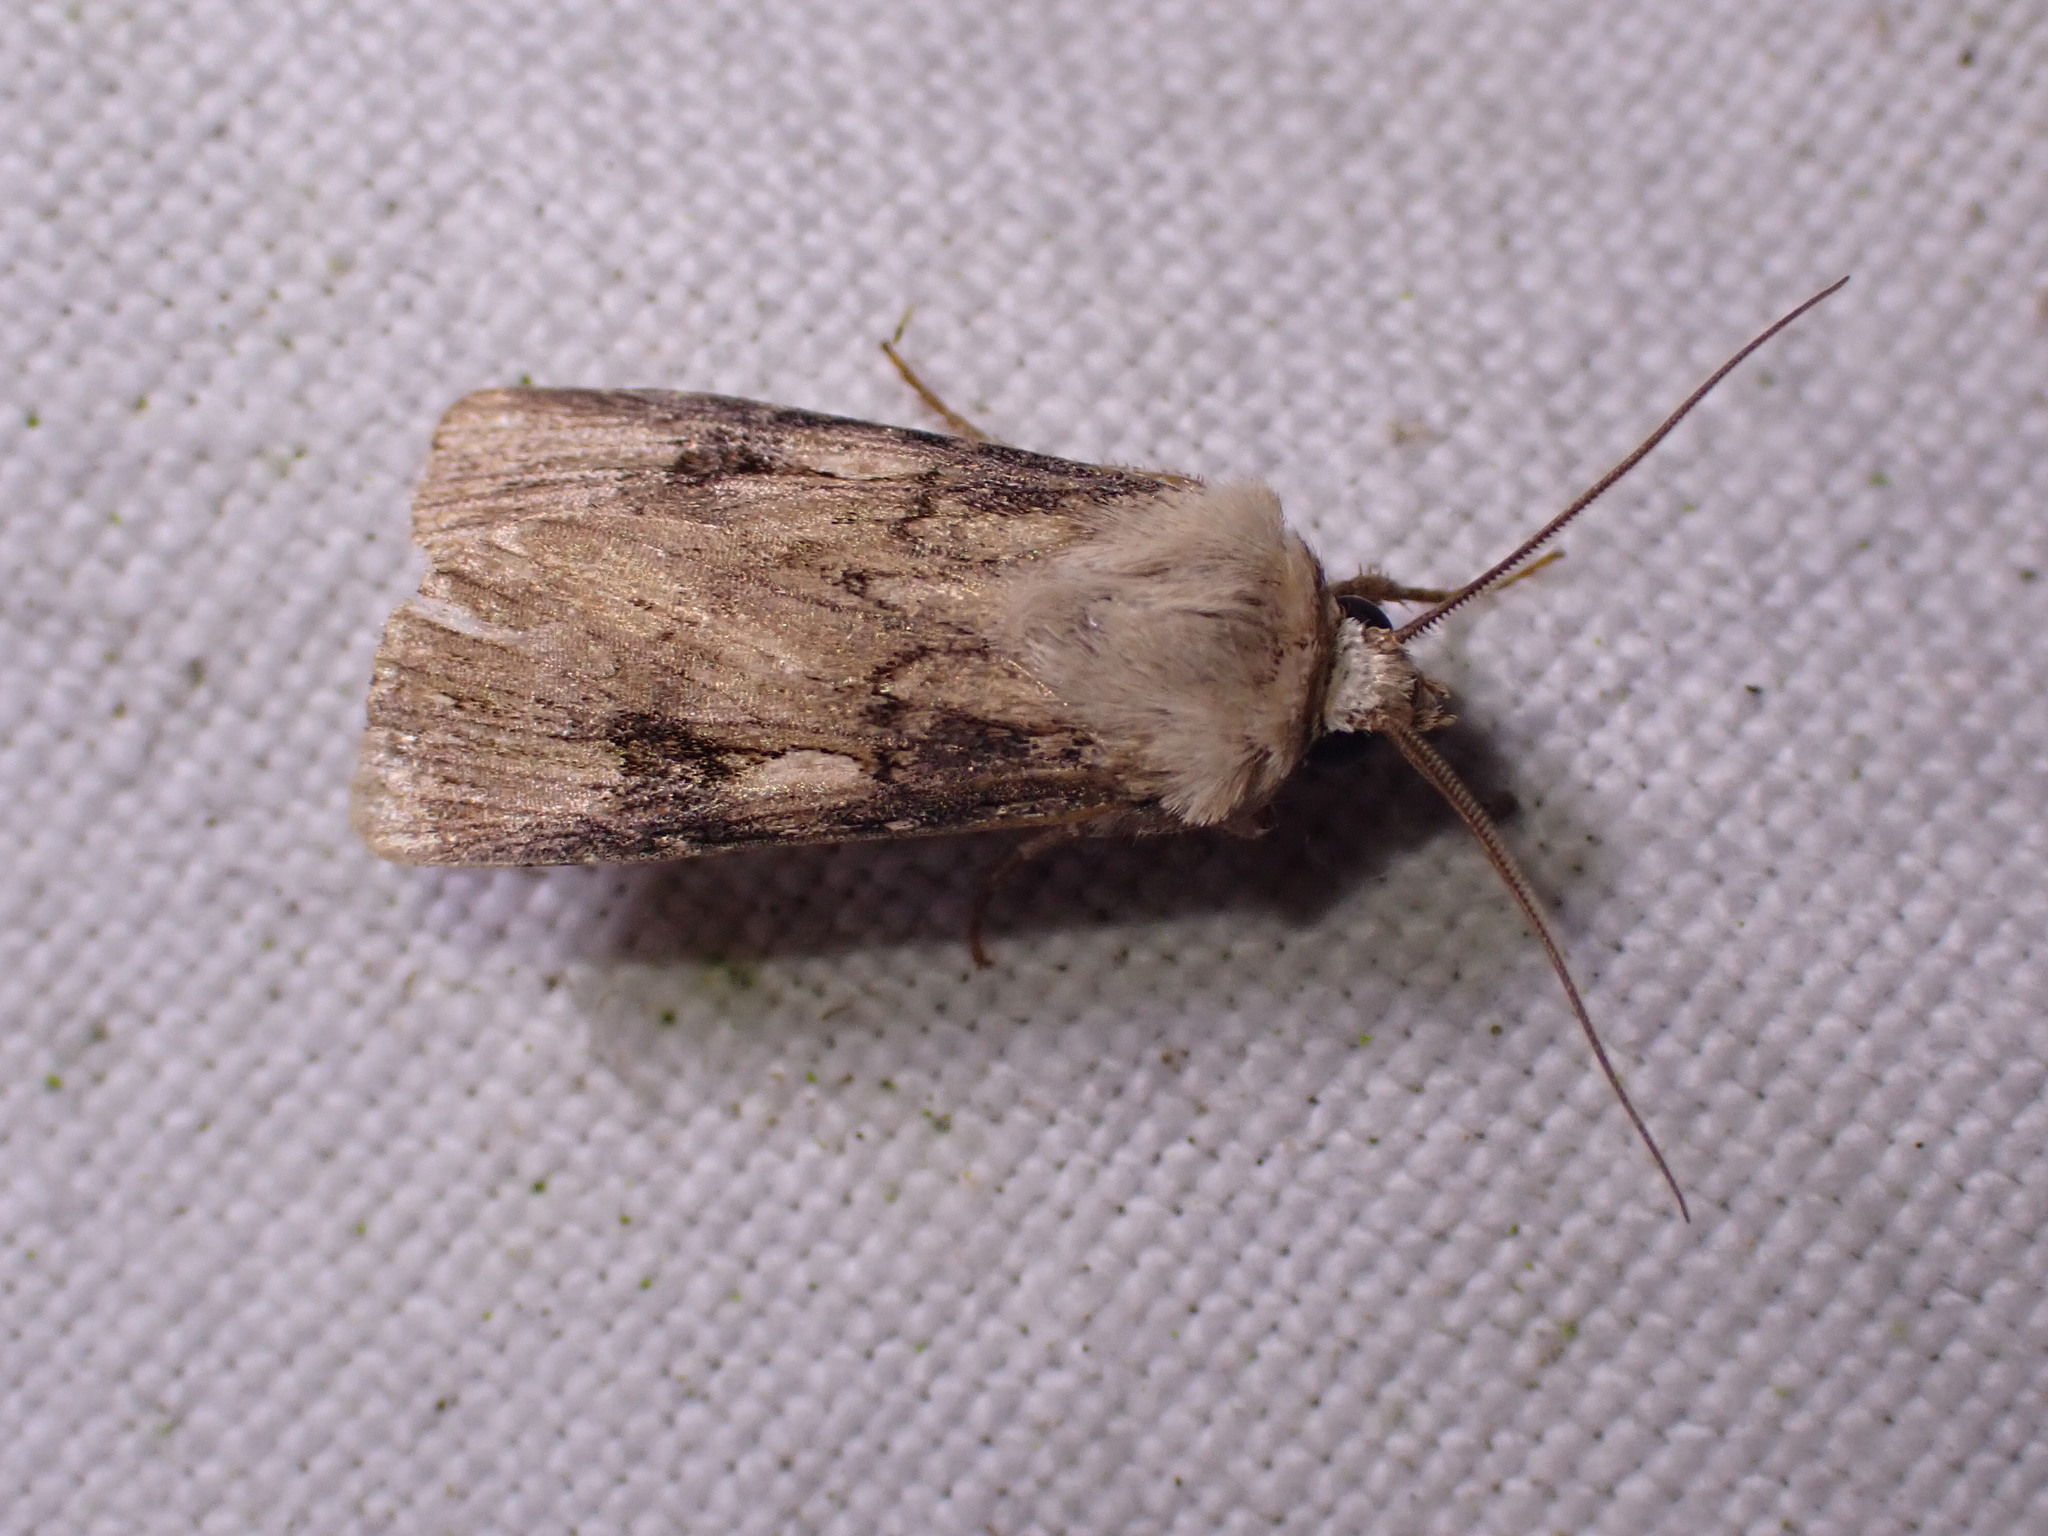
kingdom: Animalia
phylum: Arthropoda
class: Insecta
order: Lepidoptera
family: Noctuidae
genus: Agrotis
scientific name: Agrotis puta
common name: Shuttle-shaped dart
